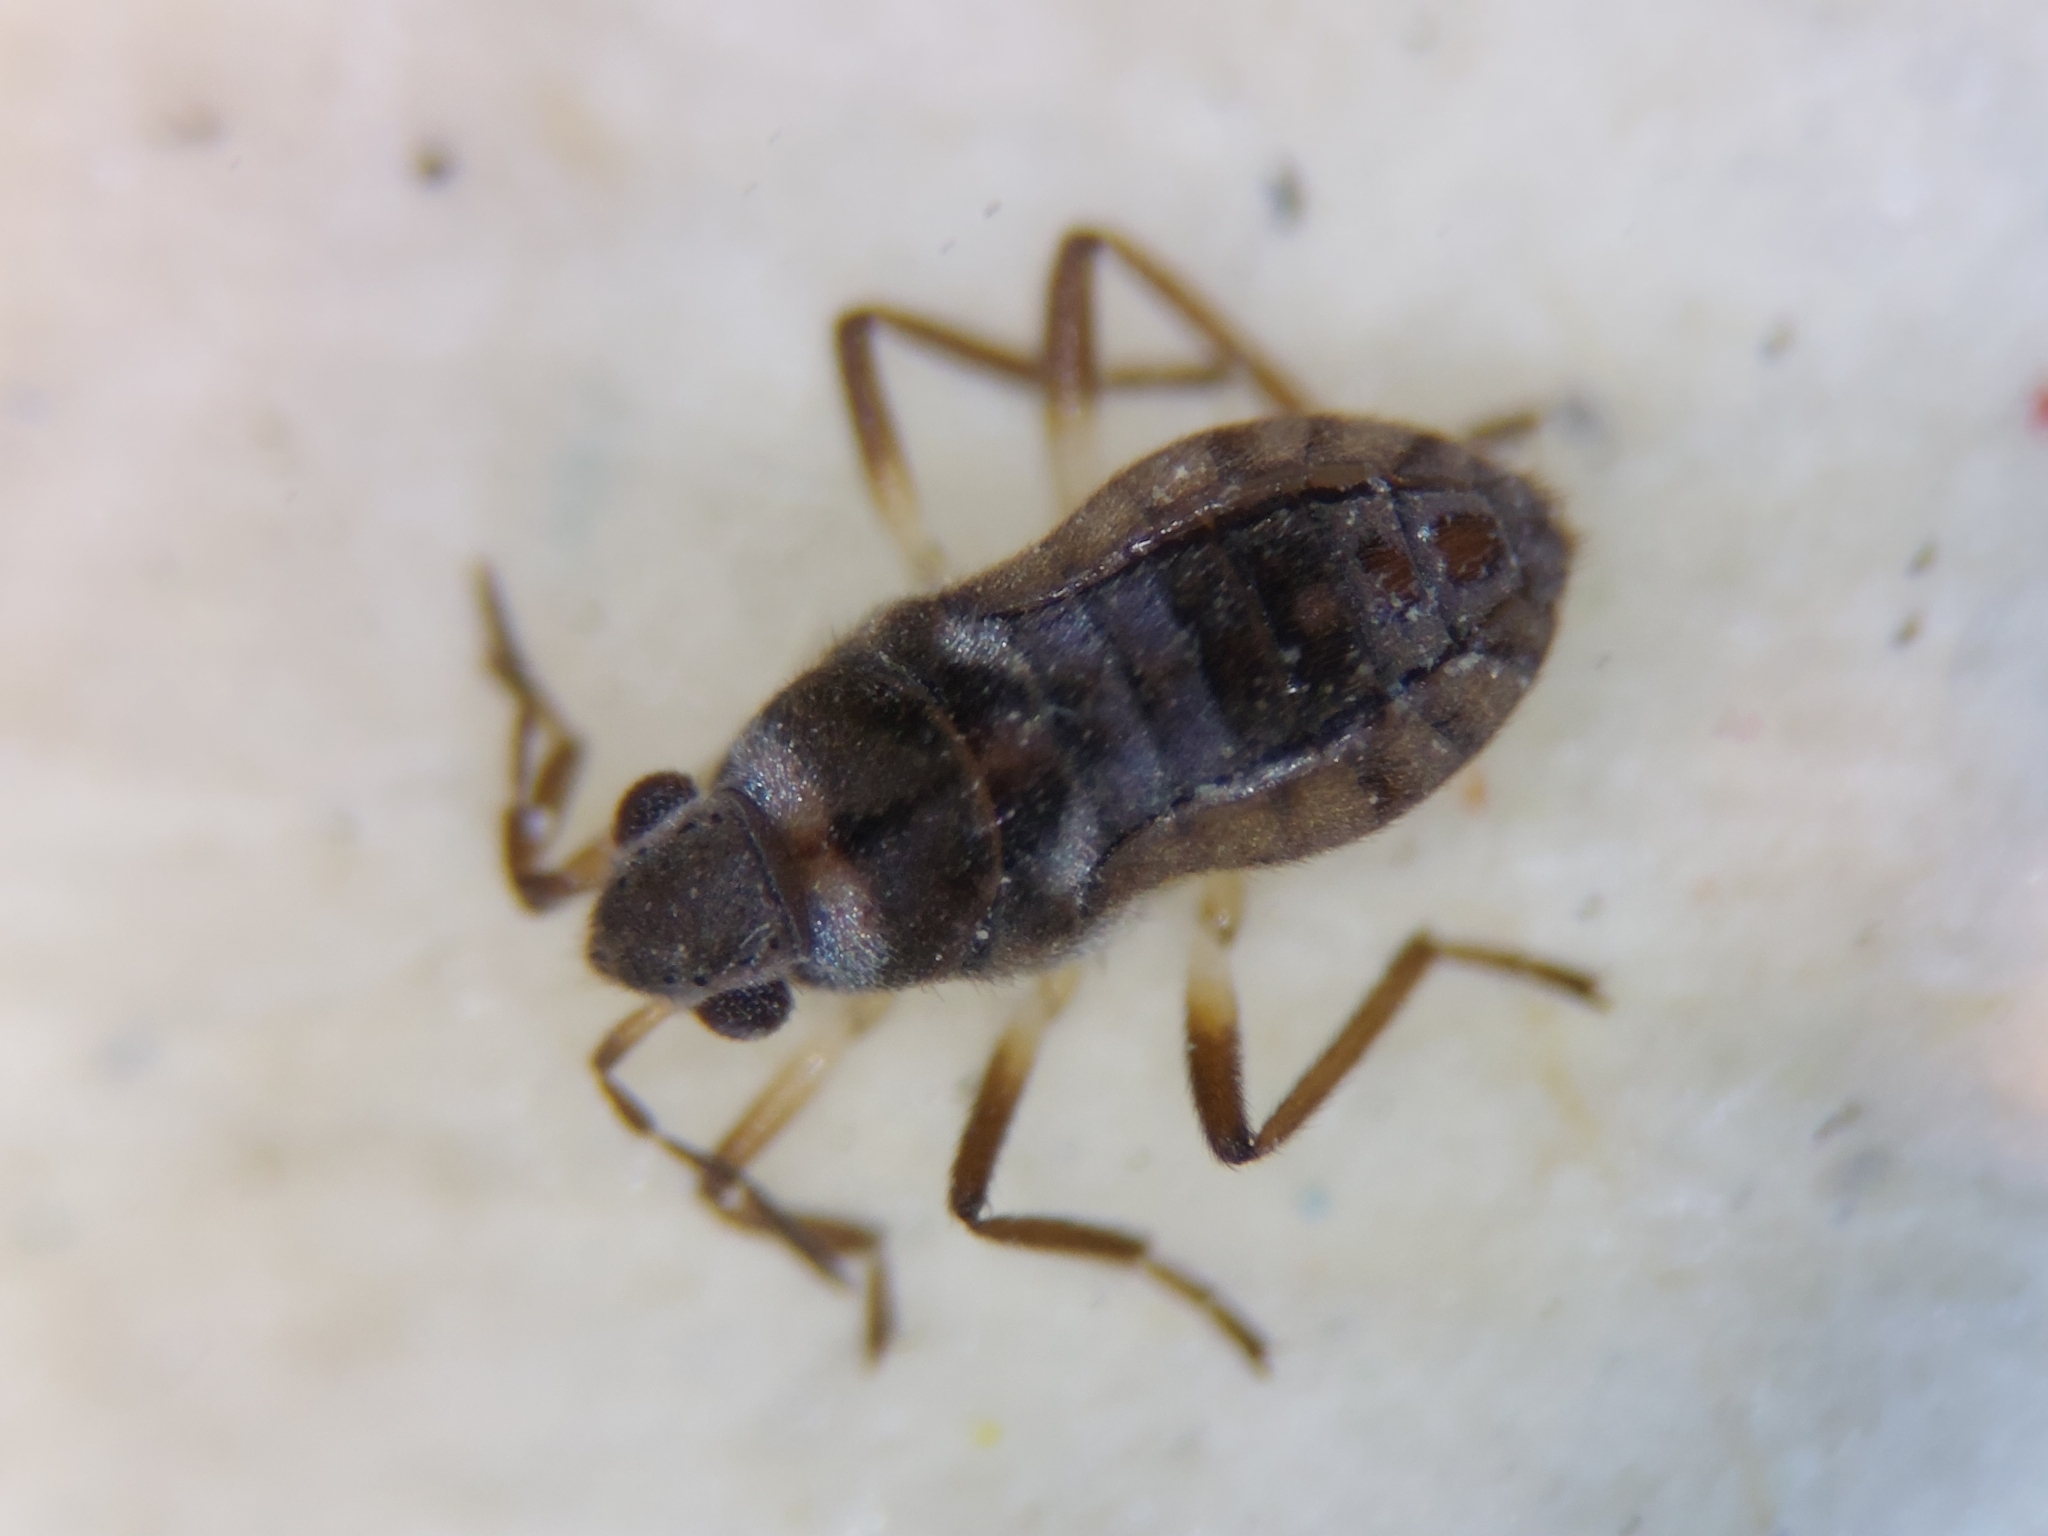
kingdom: Animalia
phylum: Arthropoda
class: Insecta
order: Hemiptera
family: Veliidae
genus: Microvelia
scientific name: Microvelia pygmaea
